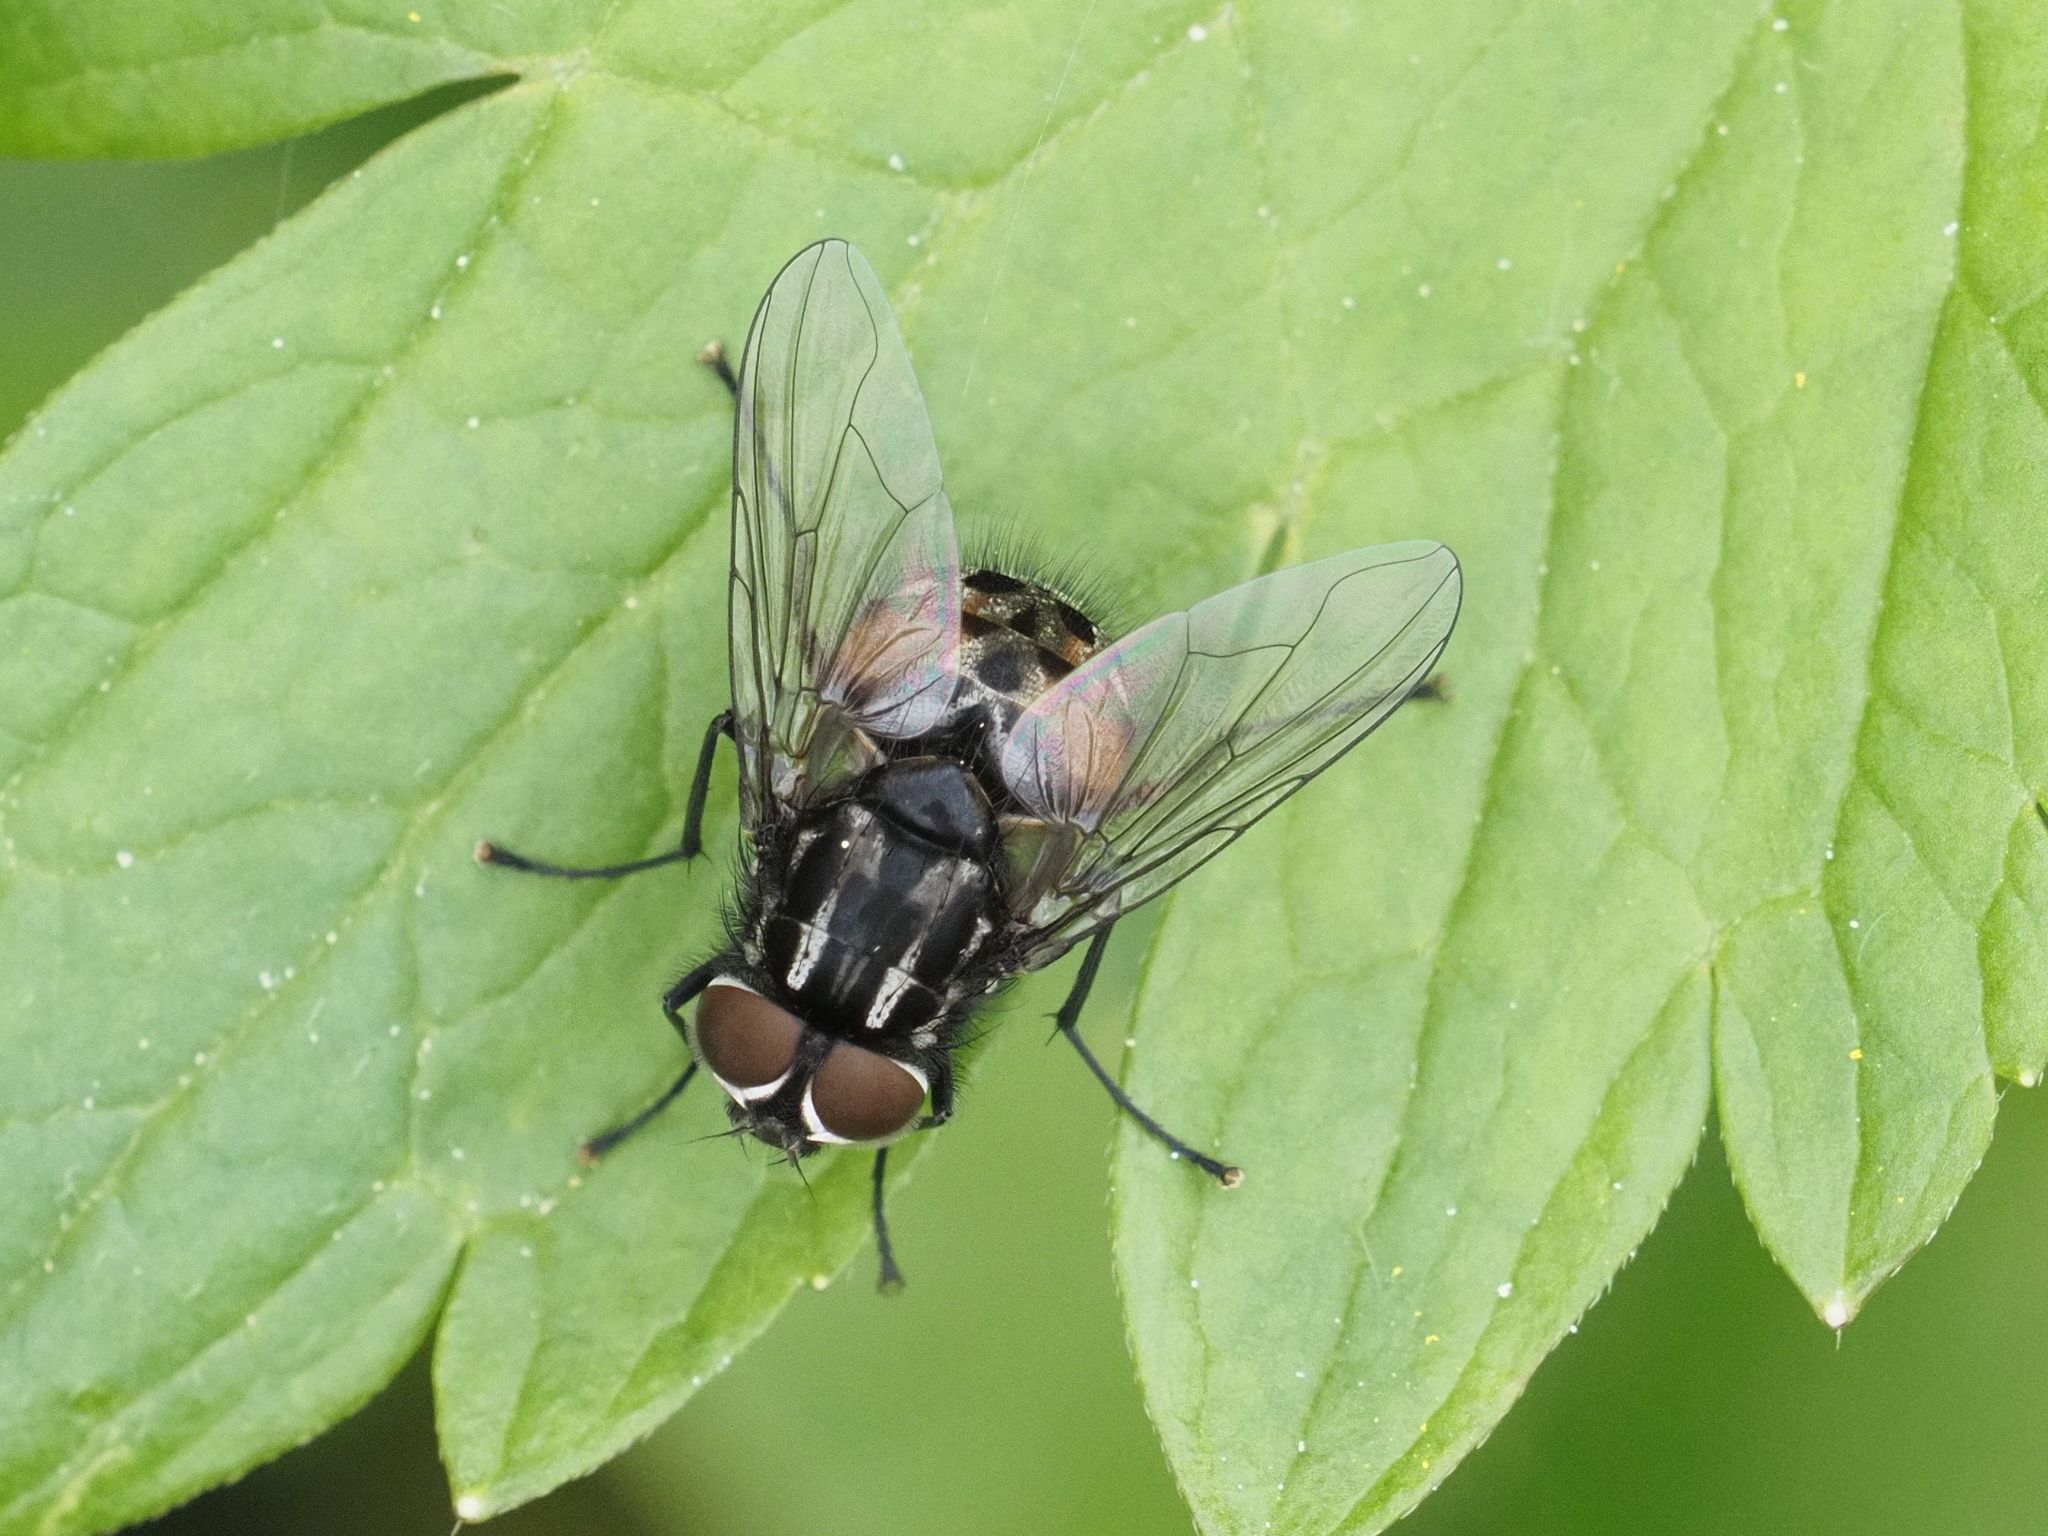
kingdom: Animalia
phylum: Arthropoda
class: Insecta
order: Diptera
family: Muscidae
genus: Graphomya
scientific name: Graphomya maculata
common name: Muscid fly
